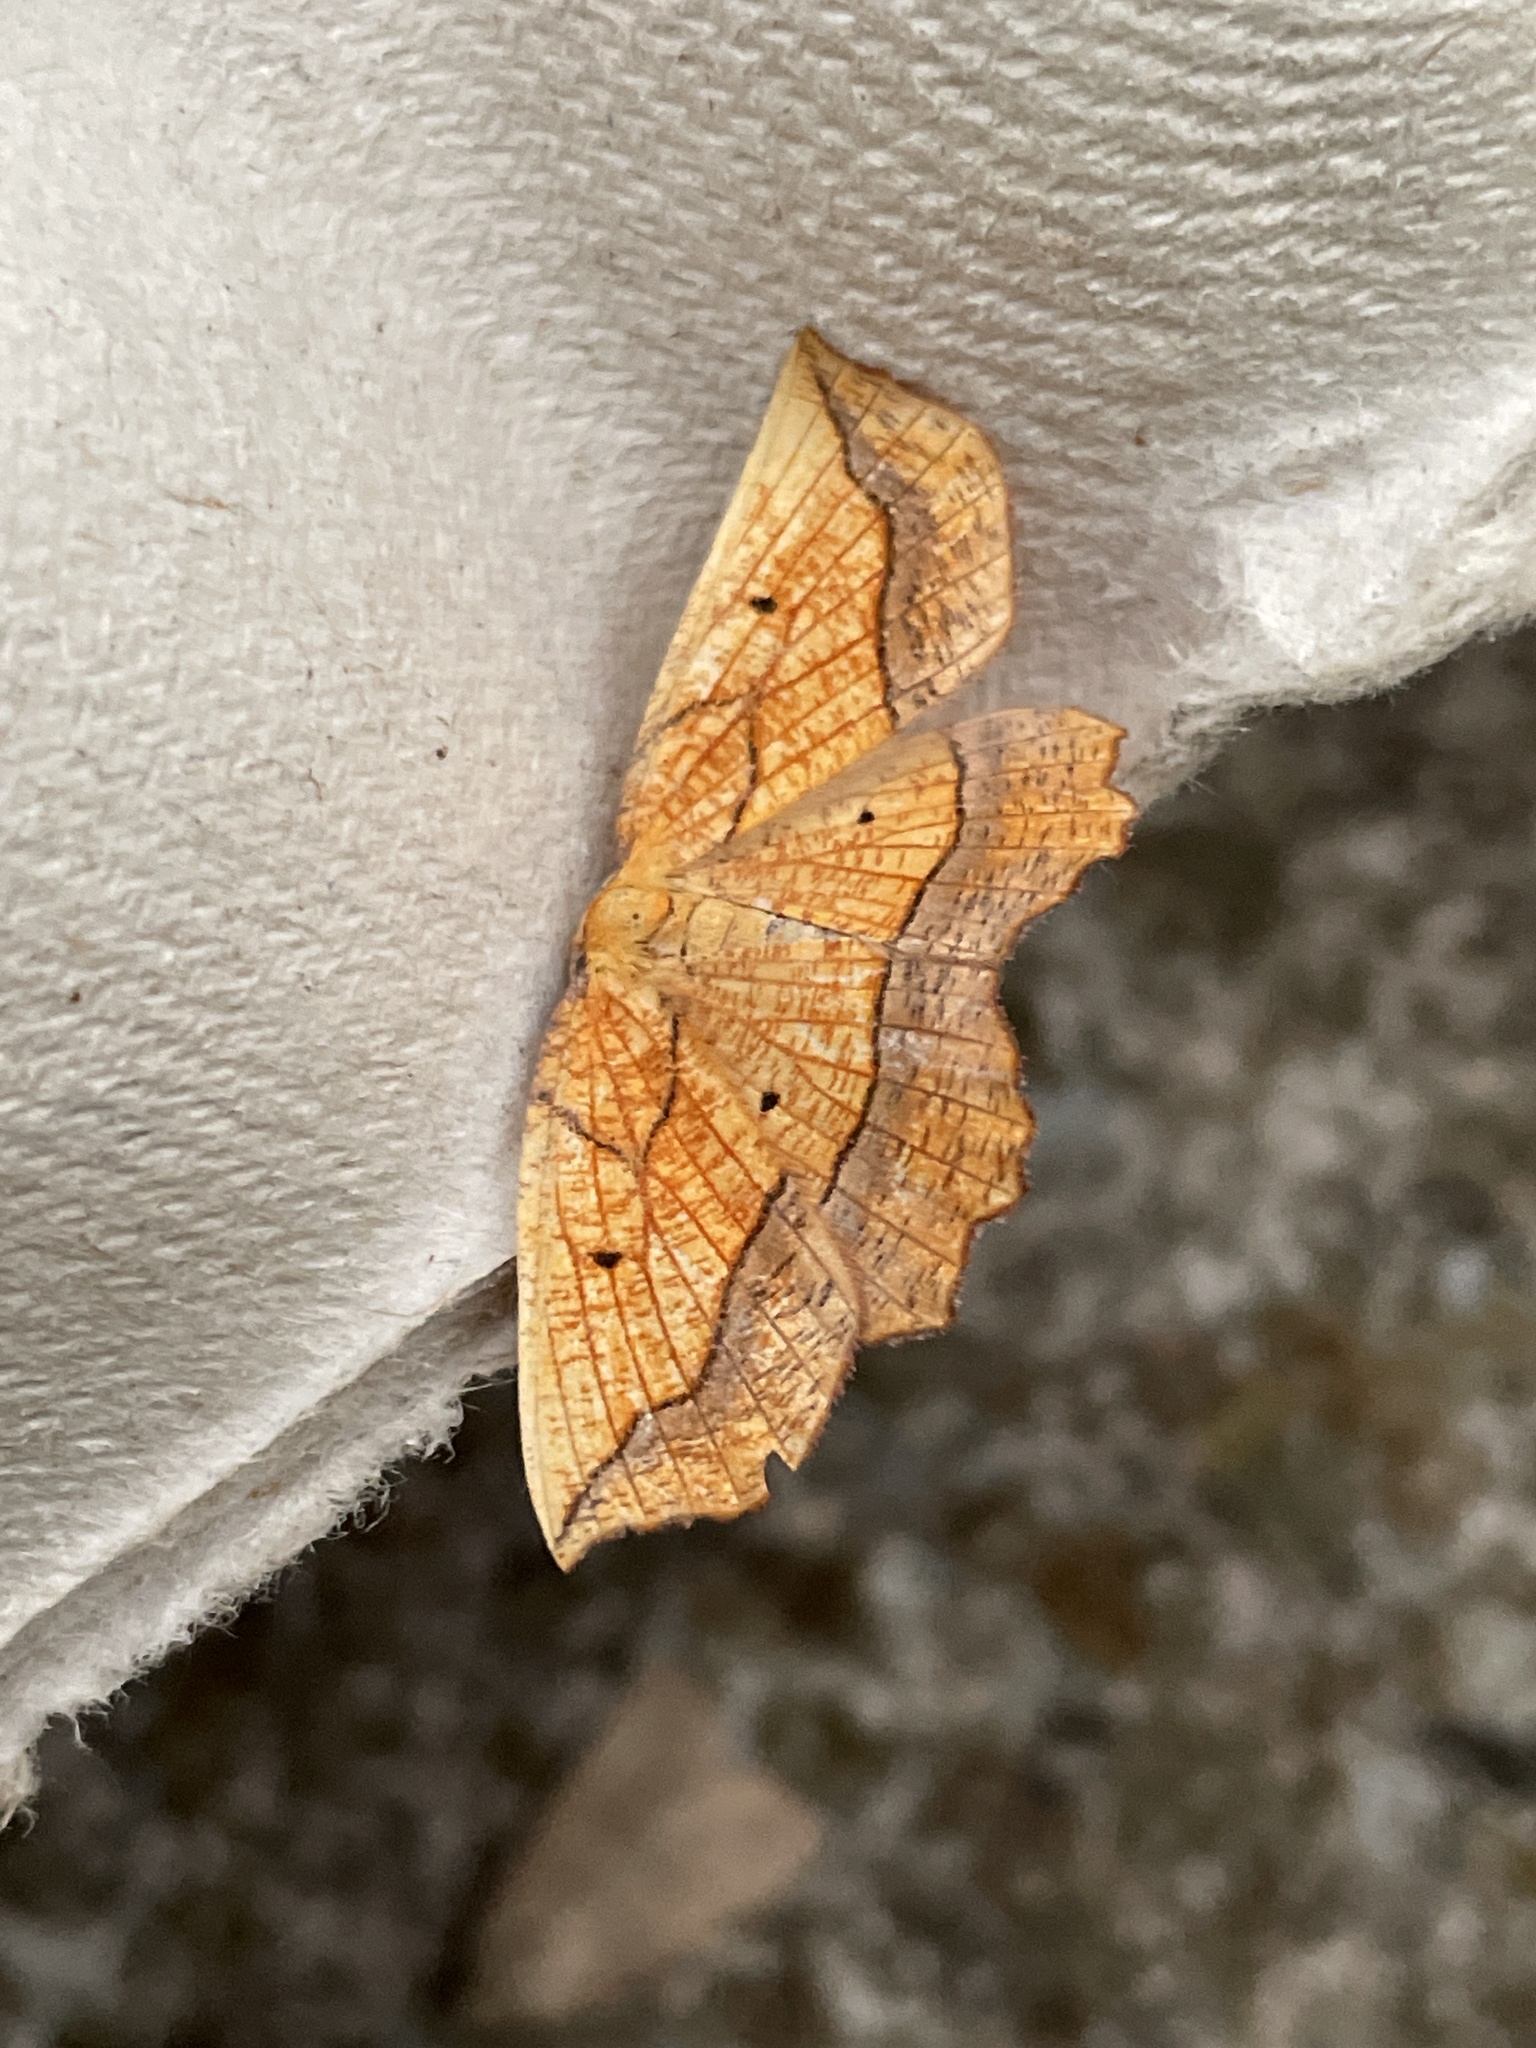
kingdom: Animalia
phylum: Arthropoda
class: Insecta
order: Lepidoptera
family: Geometridae
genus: Epione
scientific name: Epione repandaria
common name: Bordered beauty
